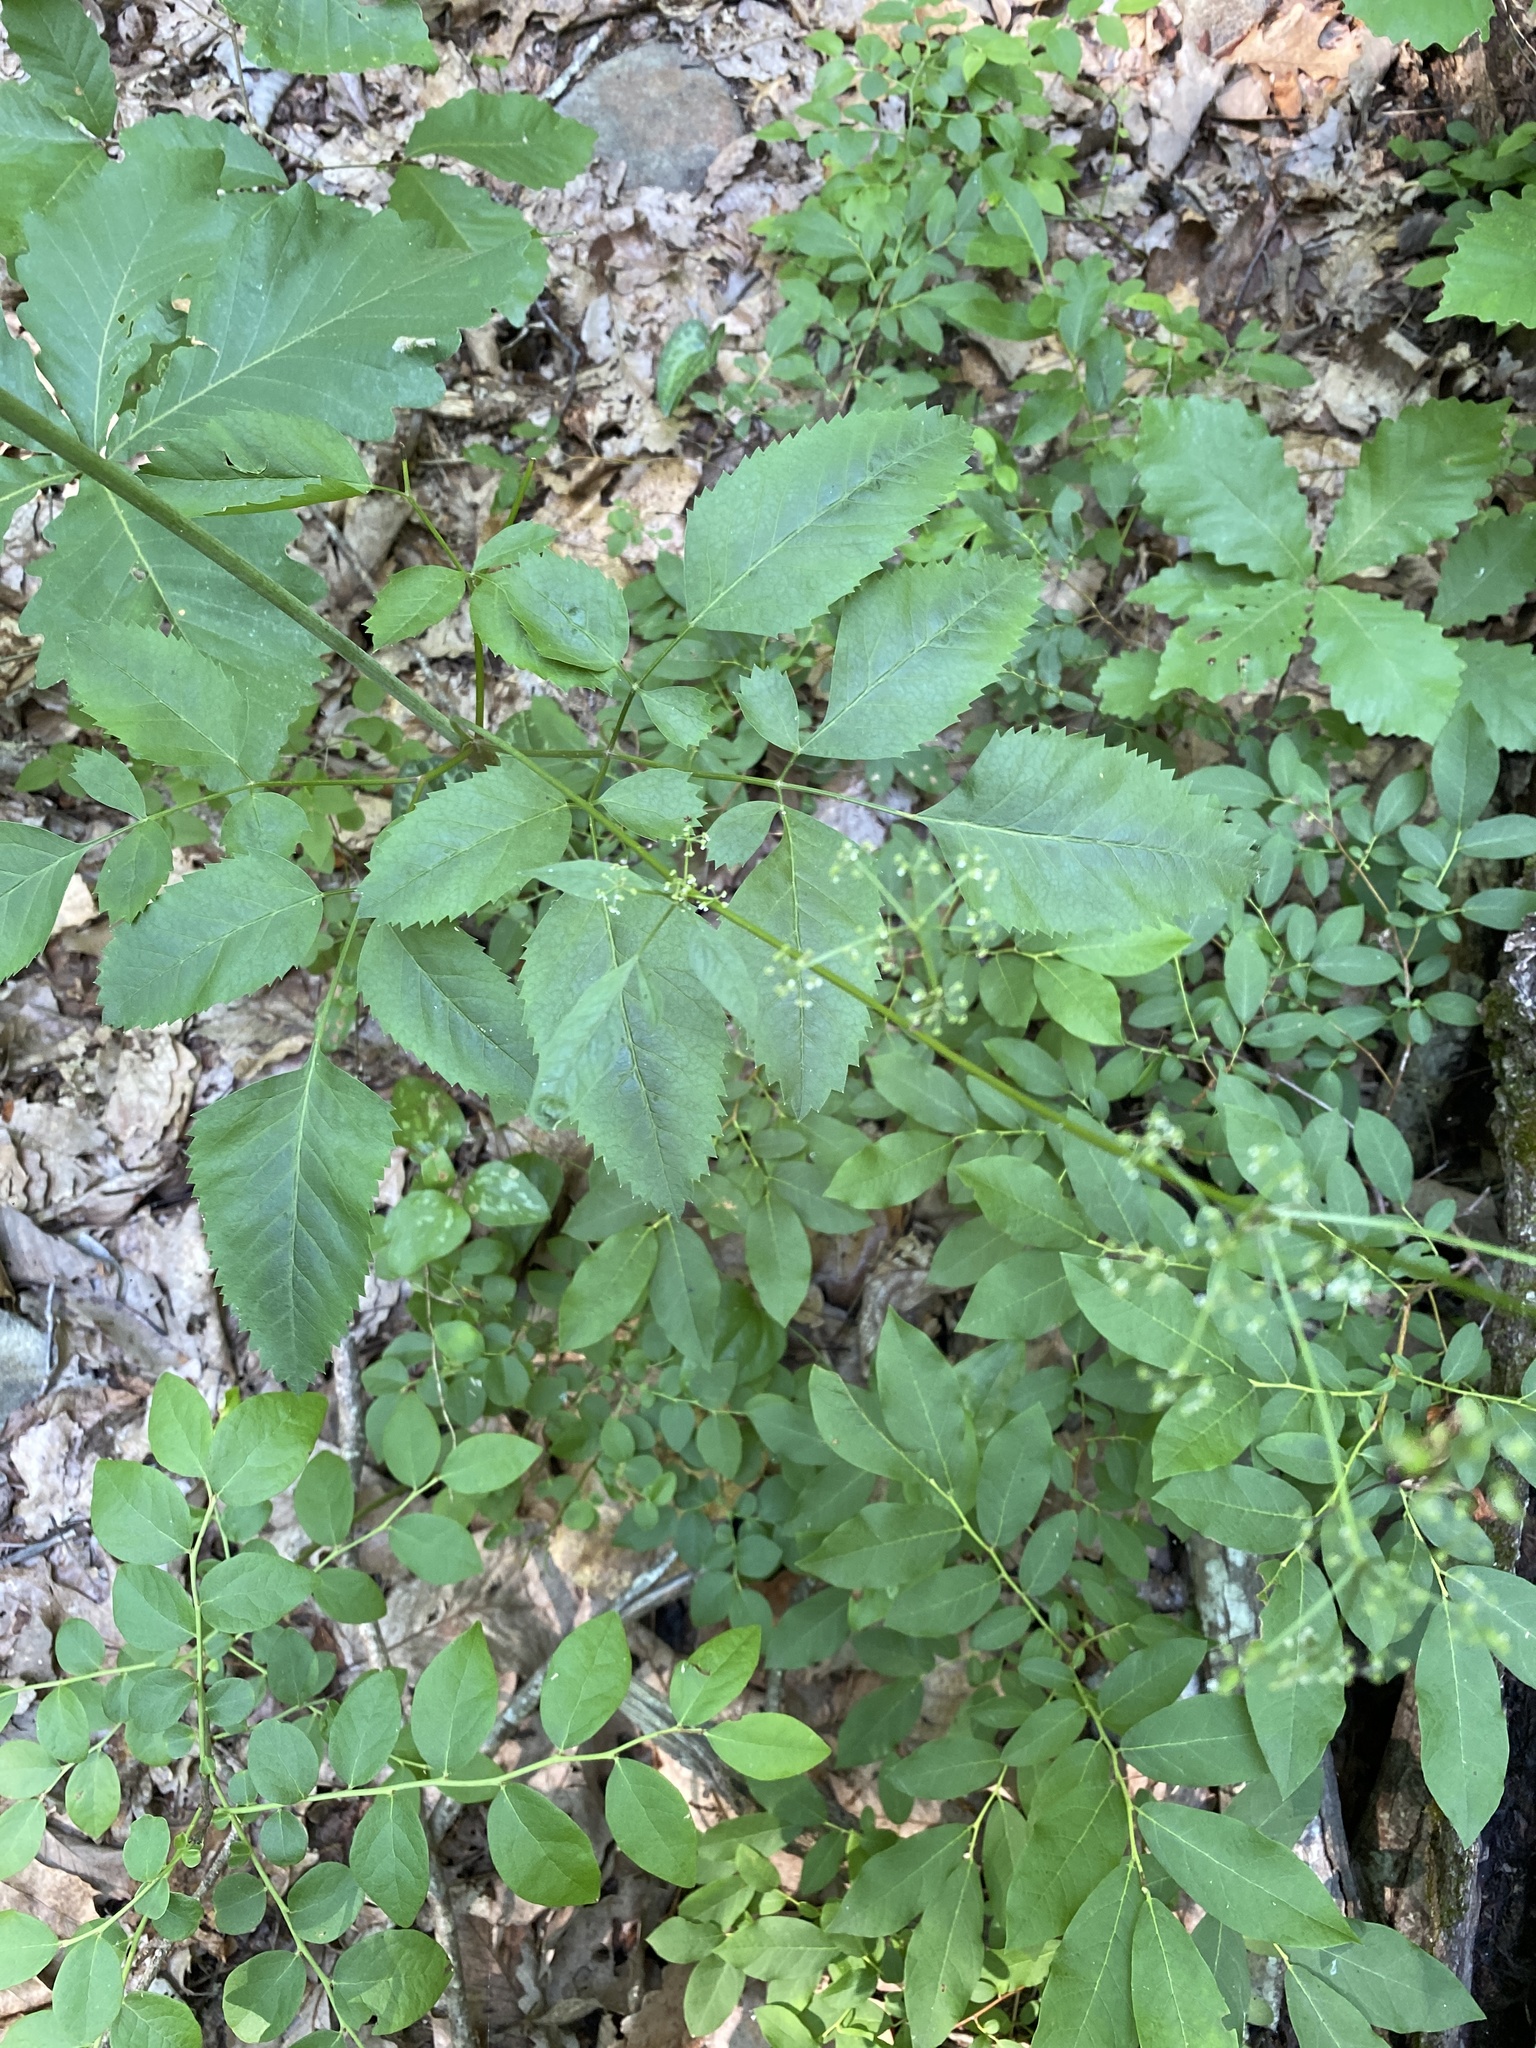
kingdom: Plantae
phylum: Tracheophyta
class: Magnoliopsida
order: Apiales
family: Apiaceae
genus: Ligusticum
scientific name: Ligusticum canadense
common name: American lovage
